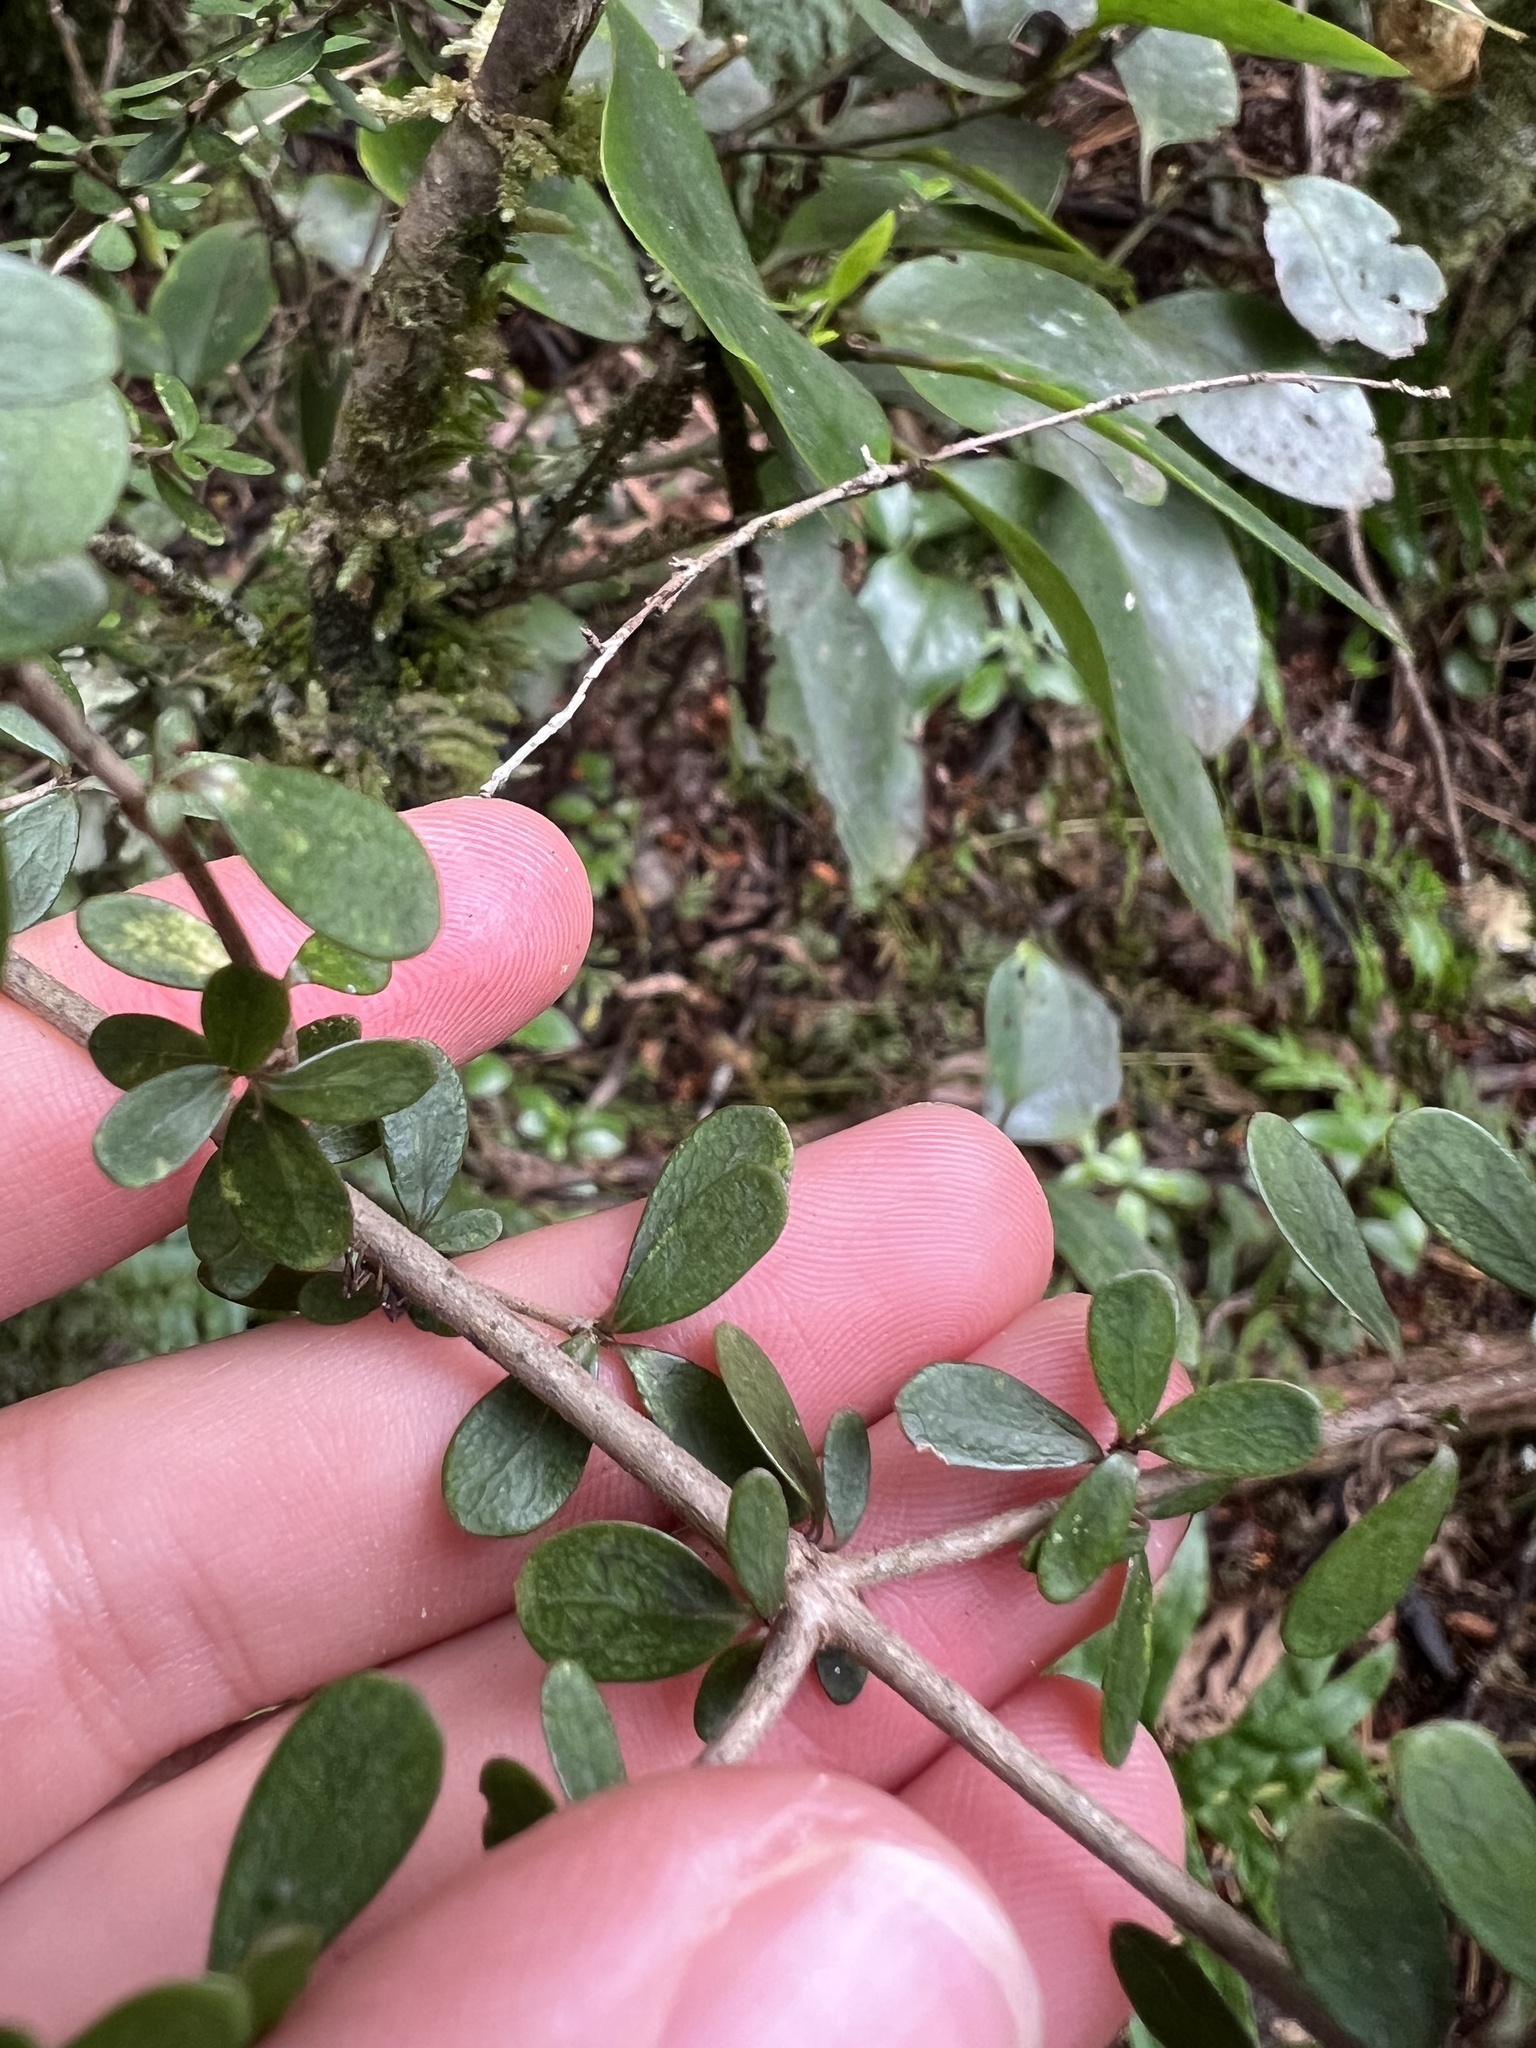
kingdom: Plantae
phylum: Tracheophyta
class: Magnoliopsida
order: Gentianales
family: Rubiaceae
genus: Coprosma
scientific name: Coprosma dumosa
